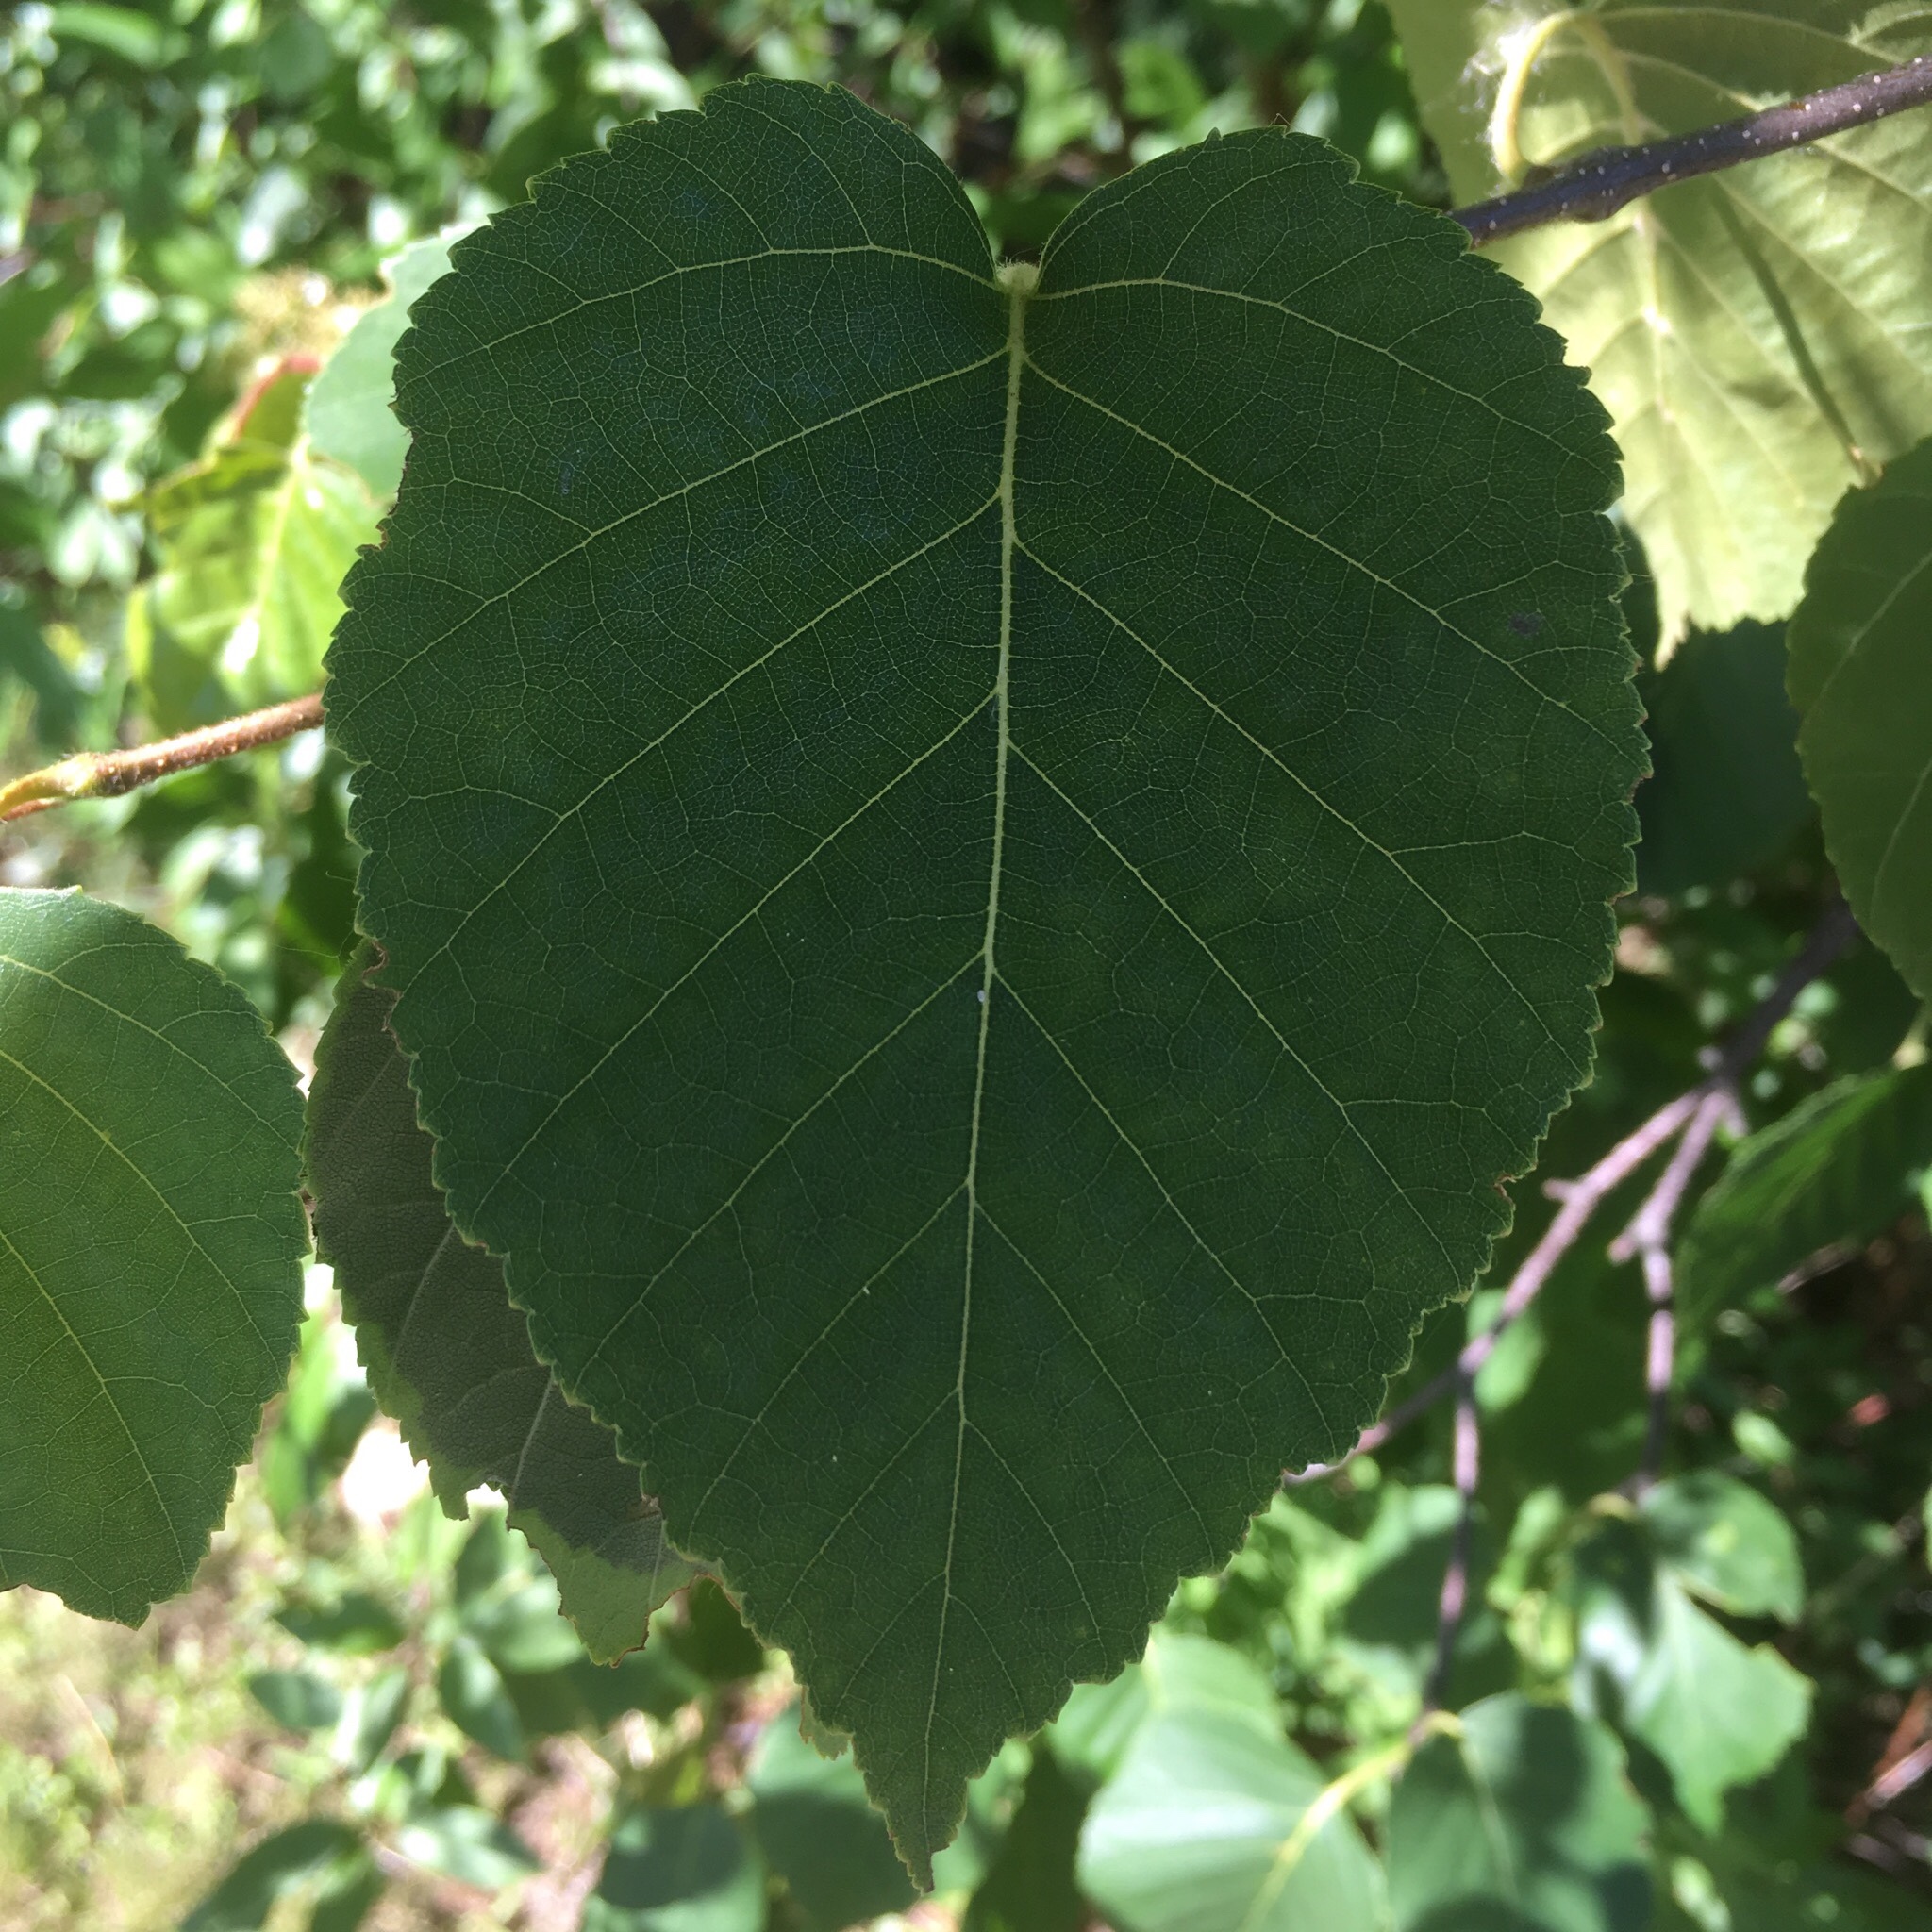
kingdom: Plantae
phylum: Tracheophyta
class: Magnoliopsida
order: Fagales
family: Betulaceae
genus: Betula
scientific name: Betula papyrifera
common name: Paper birch
